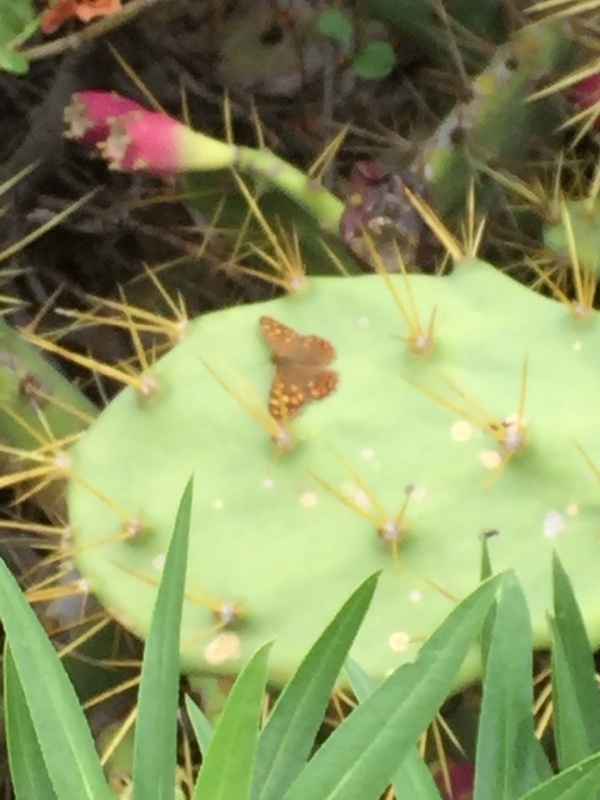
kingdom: Animalia
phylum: Arthropoda
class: Insecta
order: Lepidoptera
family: Nymphalidae
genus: Pararge
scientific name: Pararge aegeria
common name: Speckled wood
